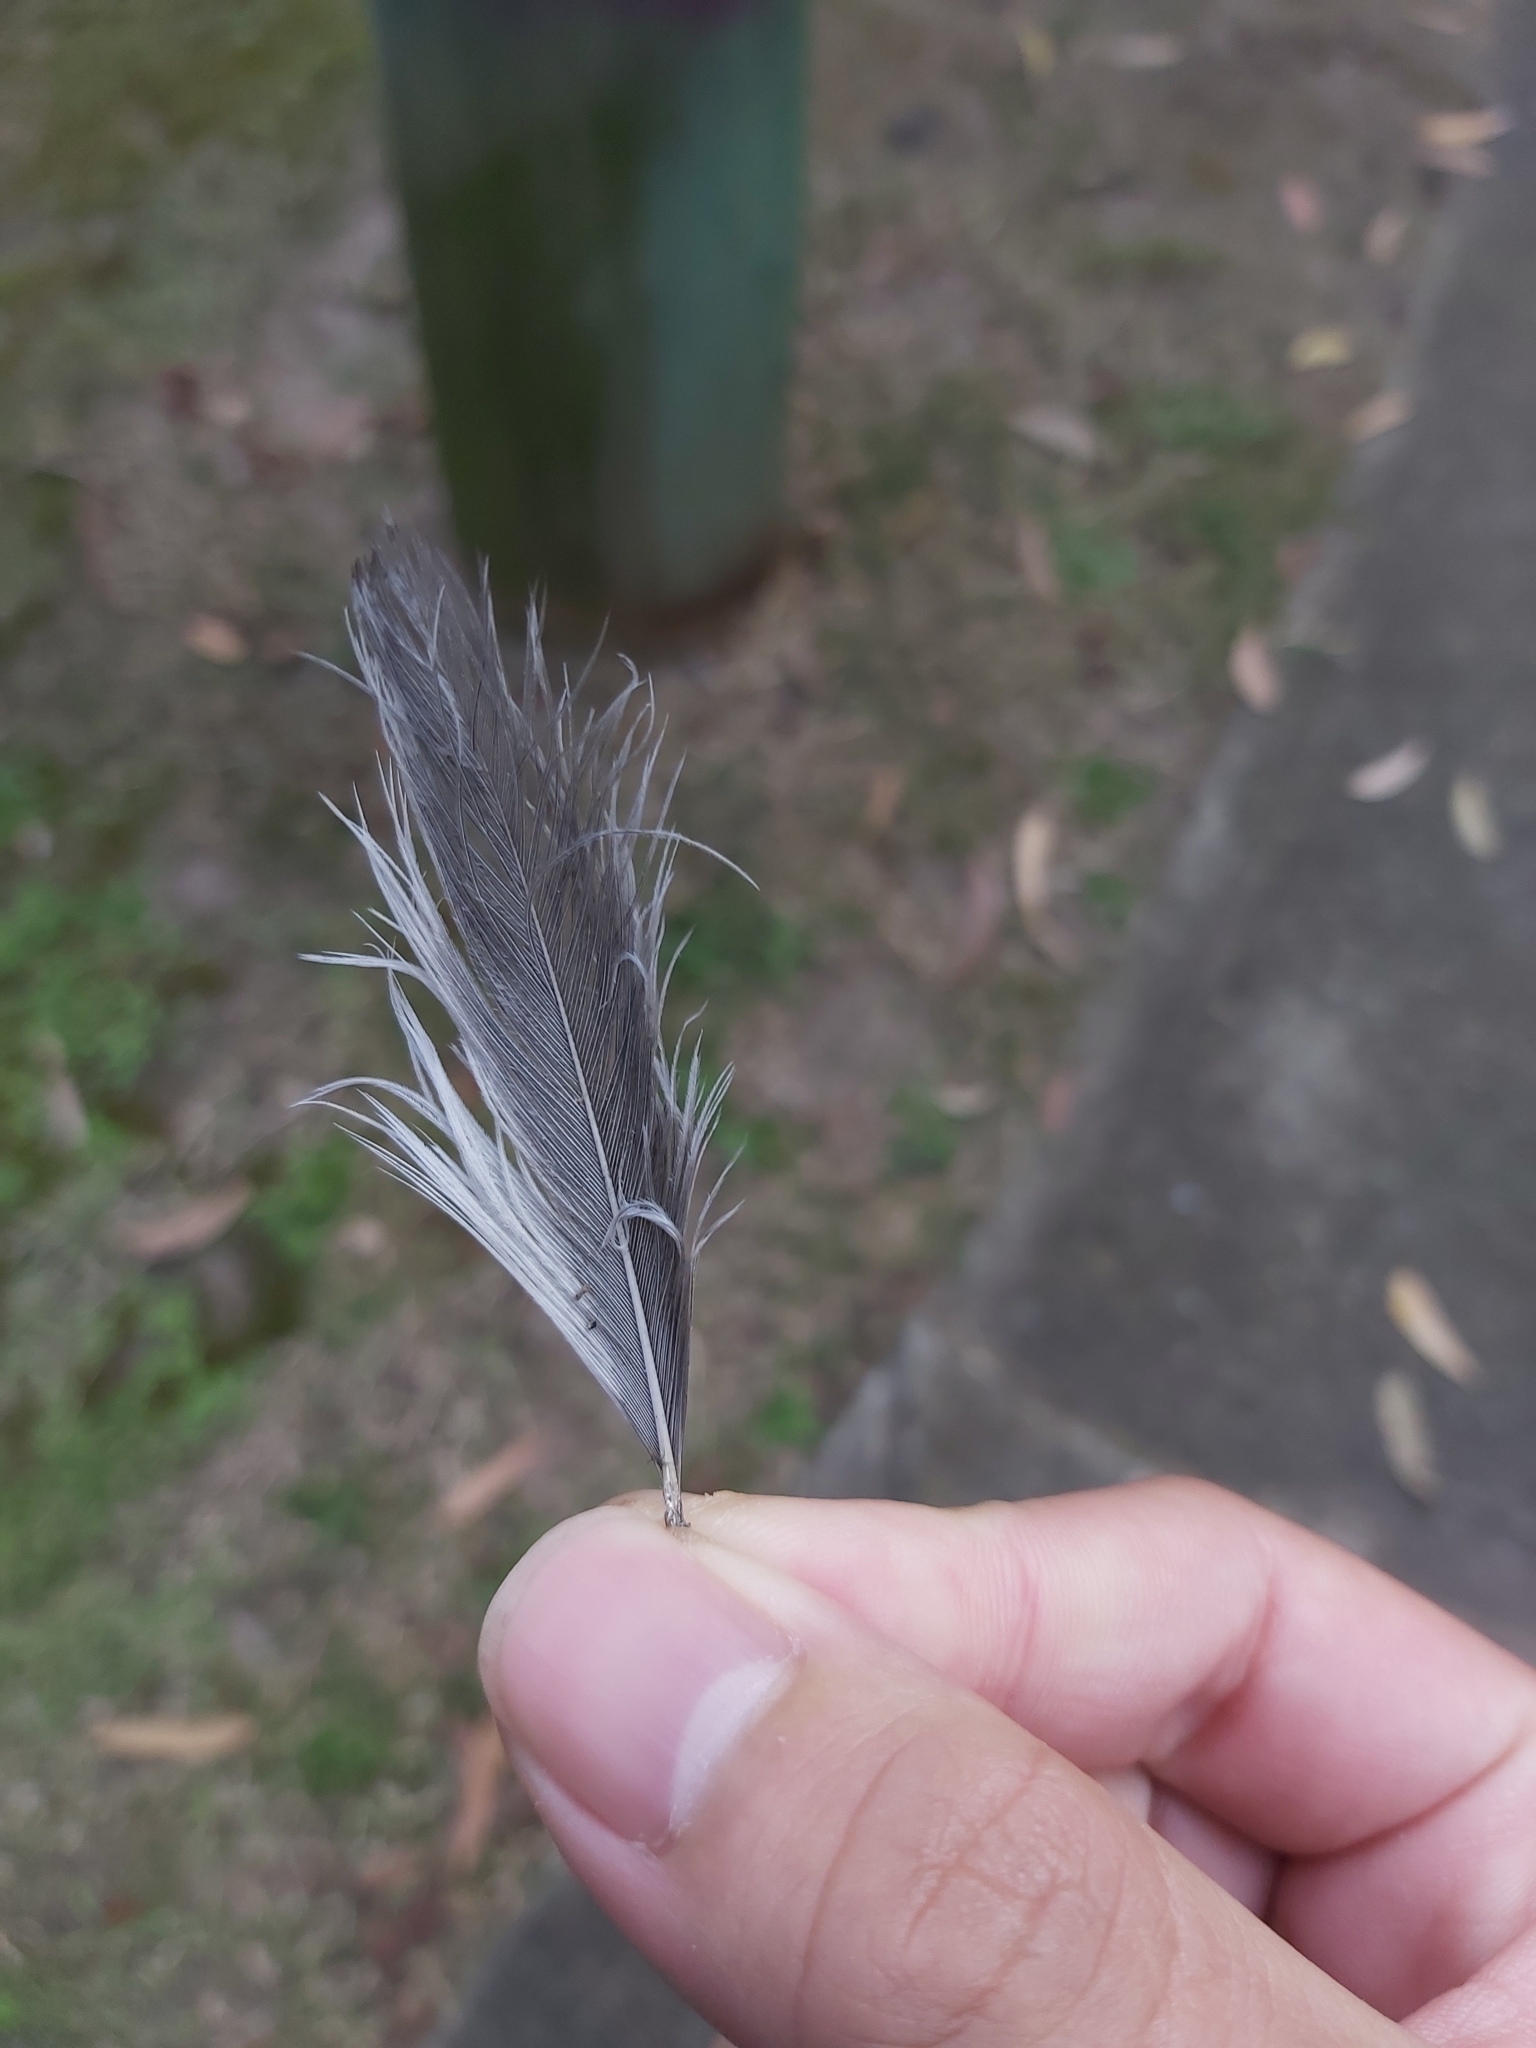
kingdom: Animalia
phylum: Chordata
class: Aves
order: Passeriformes
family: Meliphagidae
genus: Manorina
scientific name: Manorina melanocephala
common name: Noisy miner
